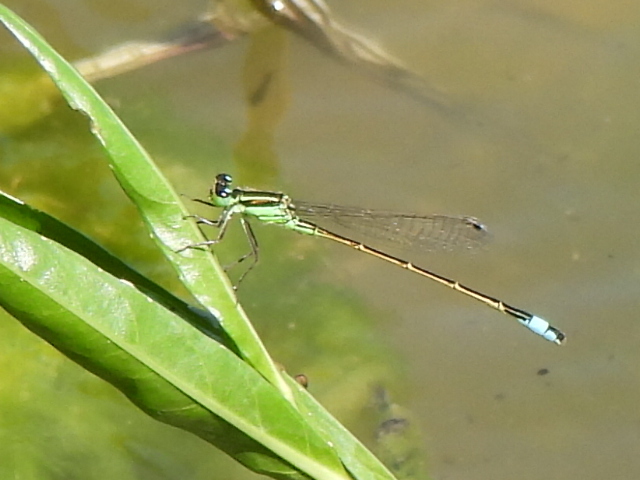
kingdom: Animalia
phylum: Arthropoda
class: Insecta
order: Odonata
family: Coenagrionidae
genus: Ischnura
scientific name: Ischnura ramburii
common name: Rambur's forktail
